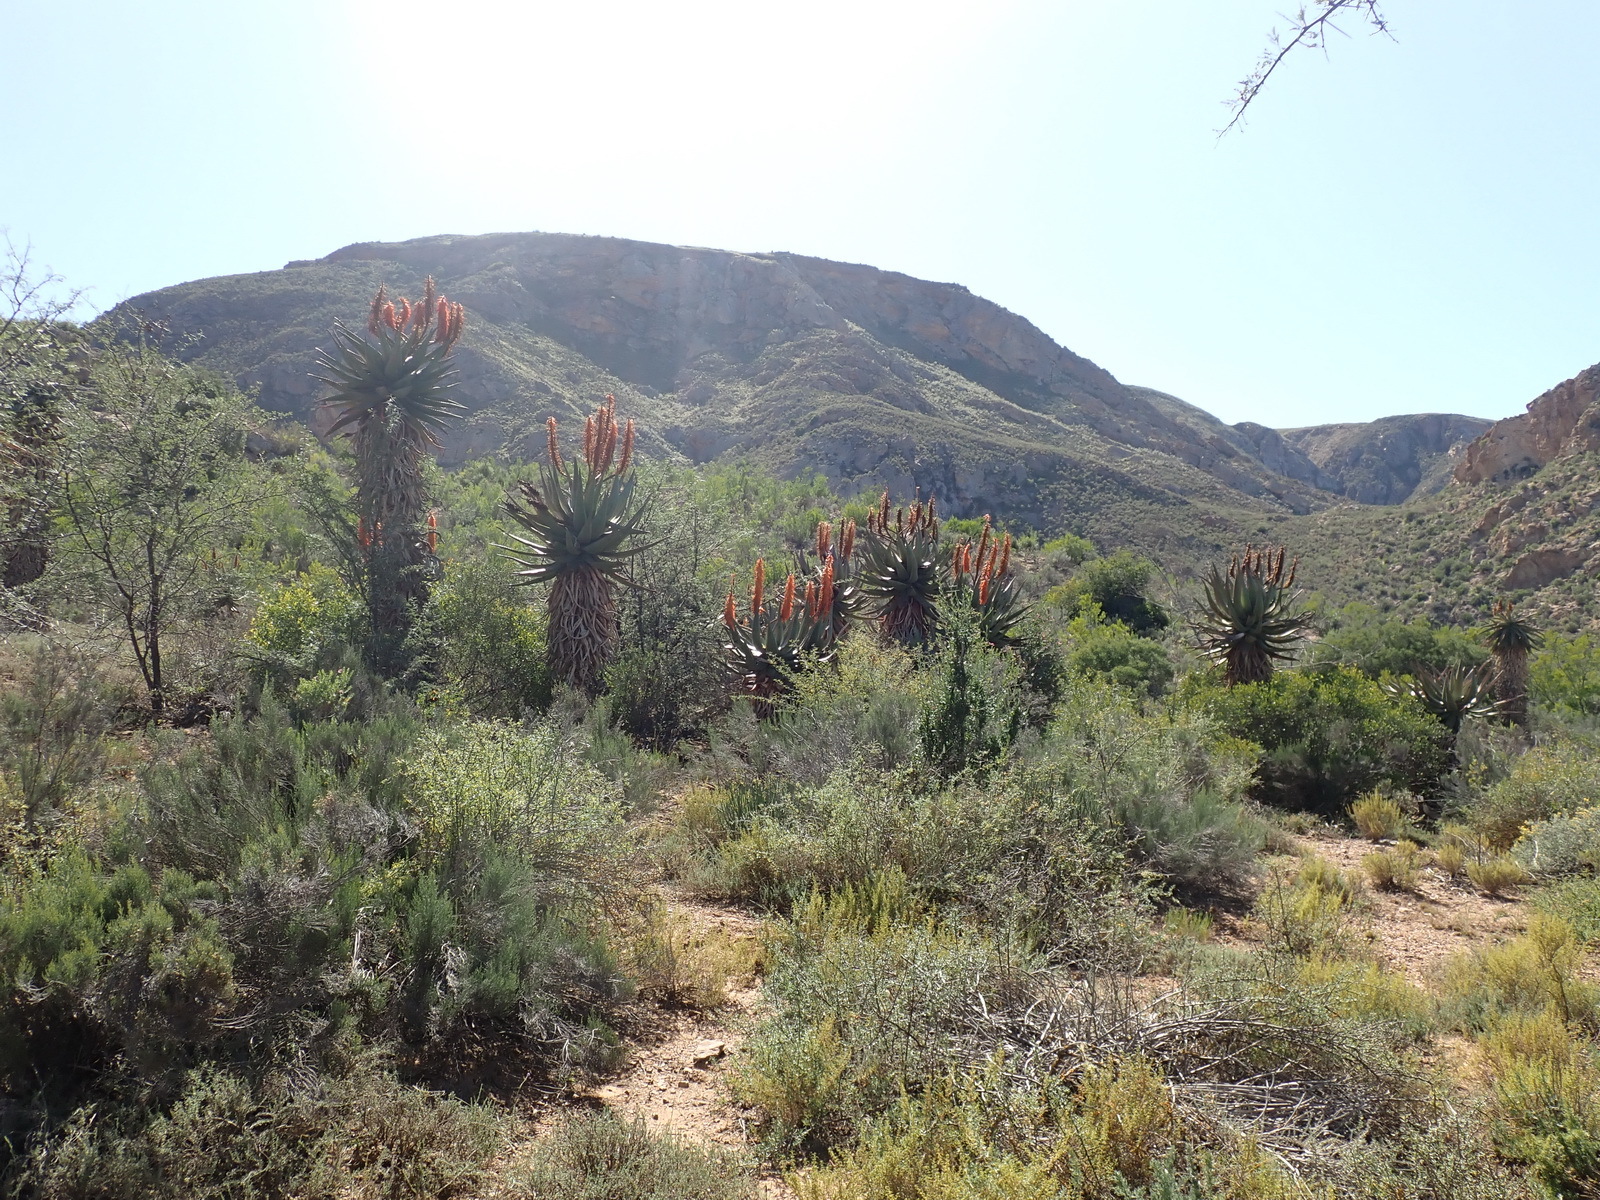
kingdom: Plantae
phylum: Tracheophyta
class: Liliopsida
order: Asparagales
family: Asphodelaceae
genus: Aloe
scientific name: Aloe ferox
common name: Bitter aloe
